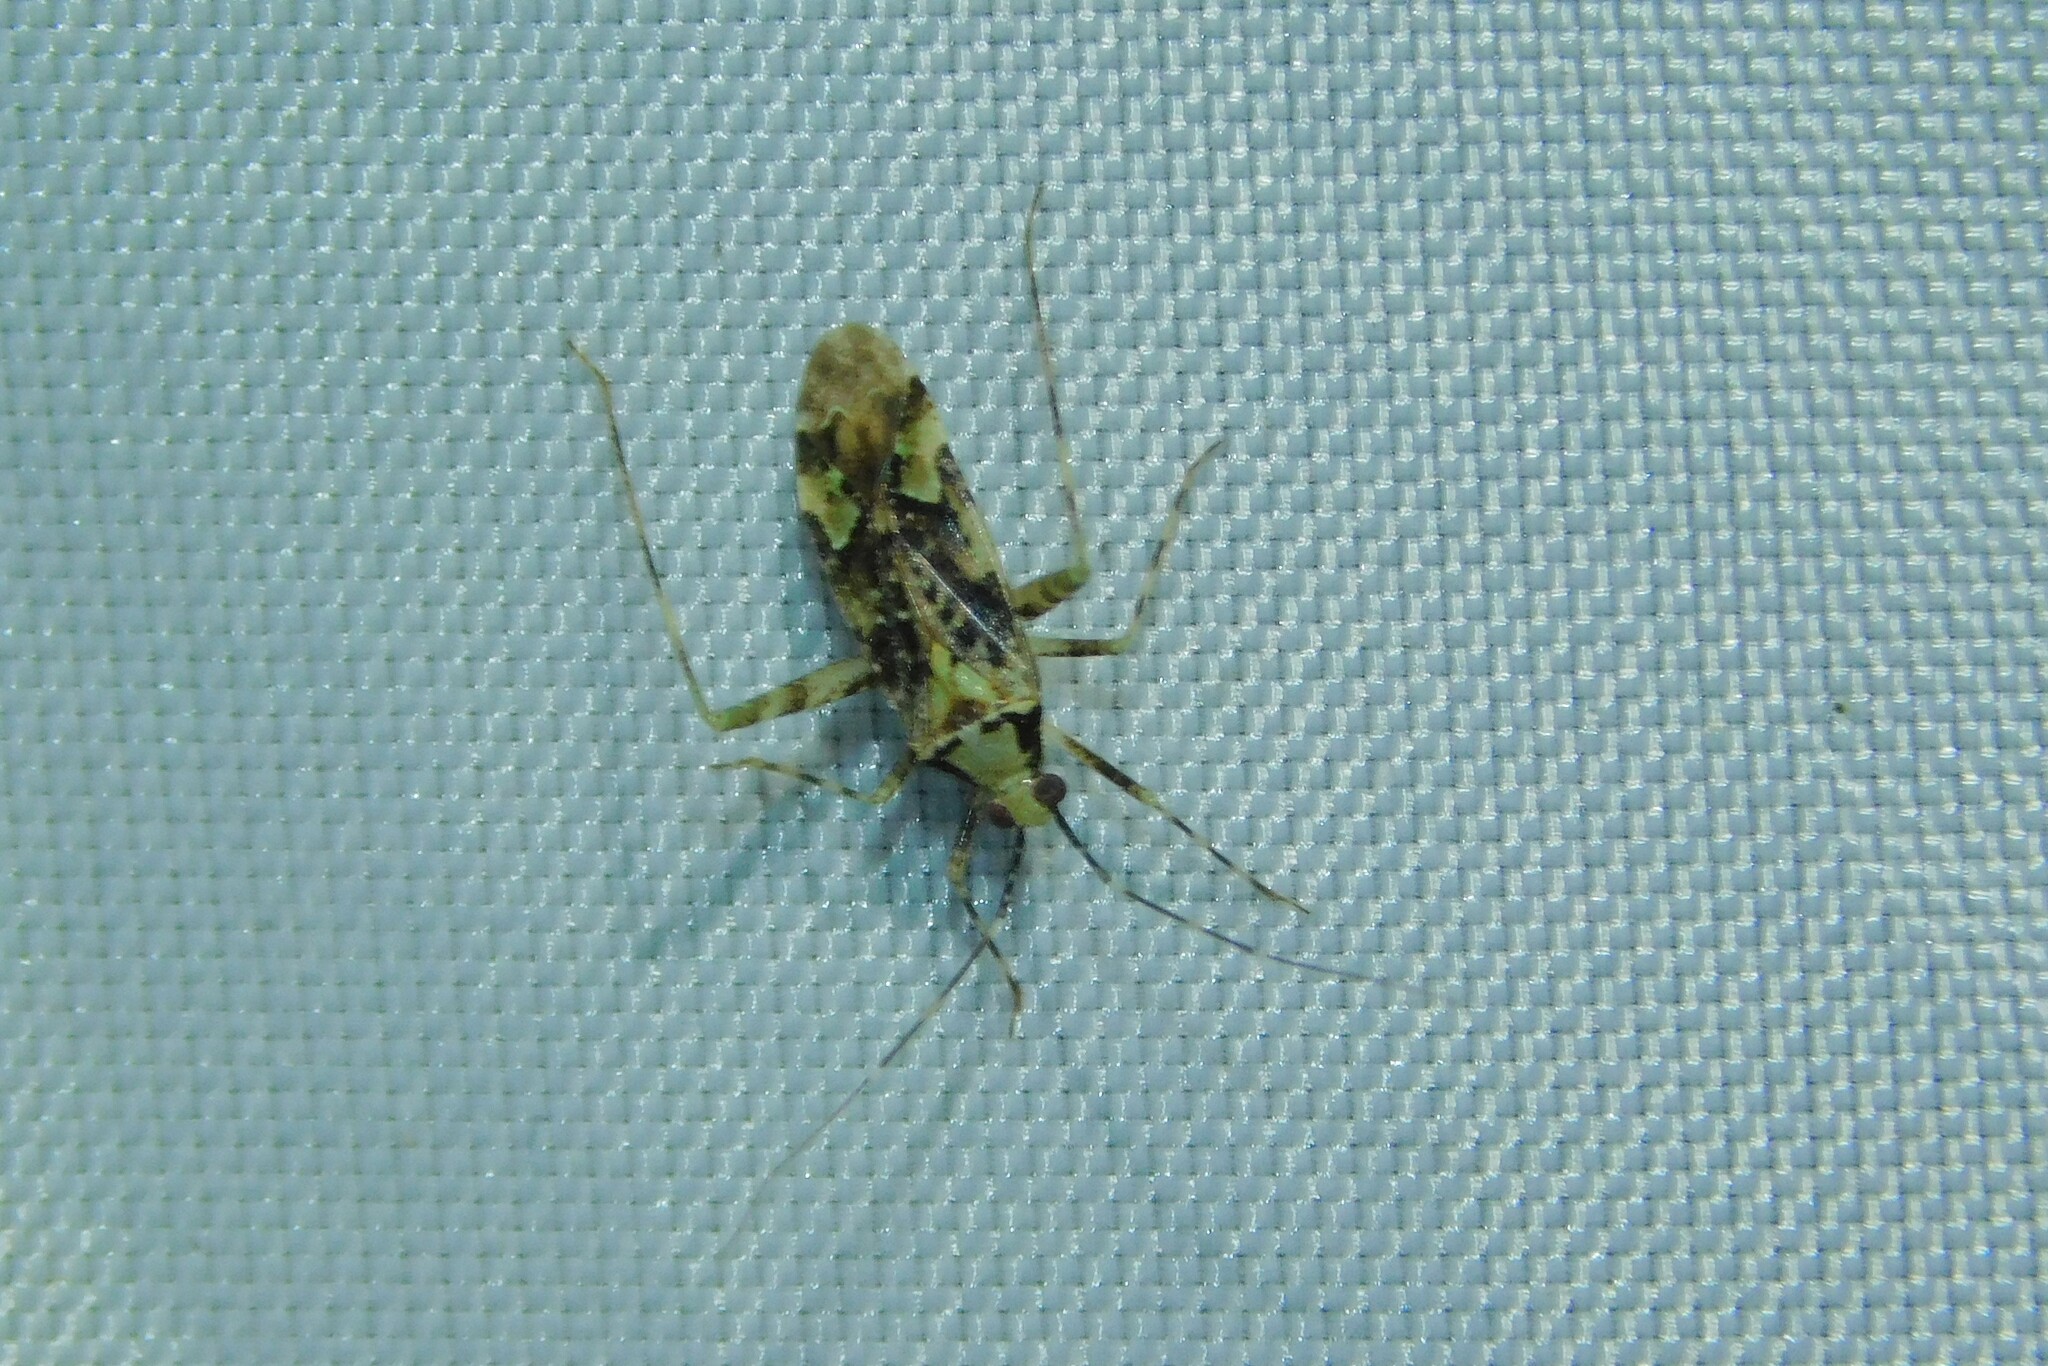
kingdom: Animalia
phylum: Arthropoda
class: Insecta
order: Hemiptera
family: Miridae
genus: Phytocoris
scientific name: Phytocoris tiliae
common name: Plant bug
